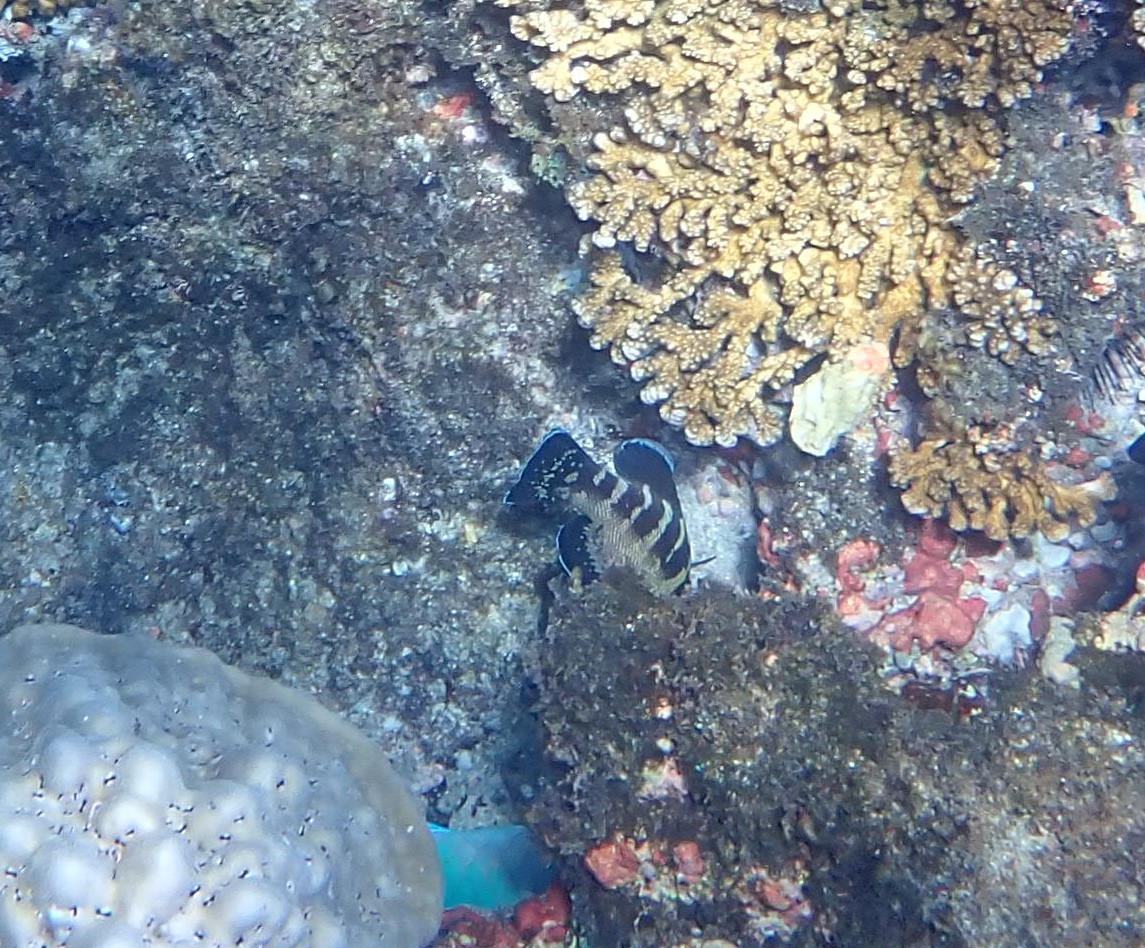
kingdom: Animalia
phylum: Chordata
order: Perciformes
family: Serranidae
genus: Cephalopholis
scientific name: Cephalopholis panamensis
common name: Pacific graysby
